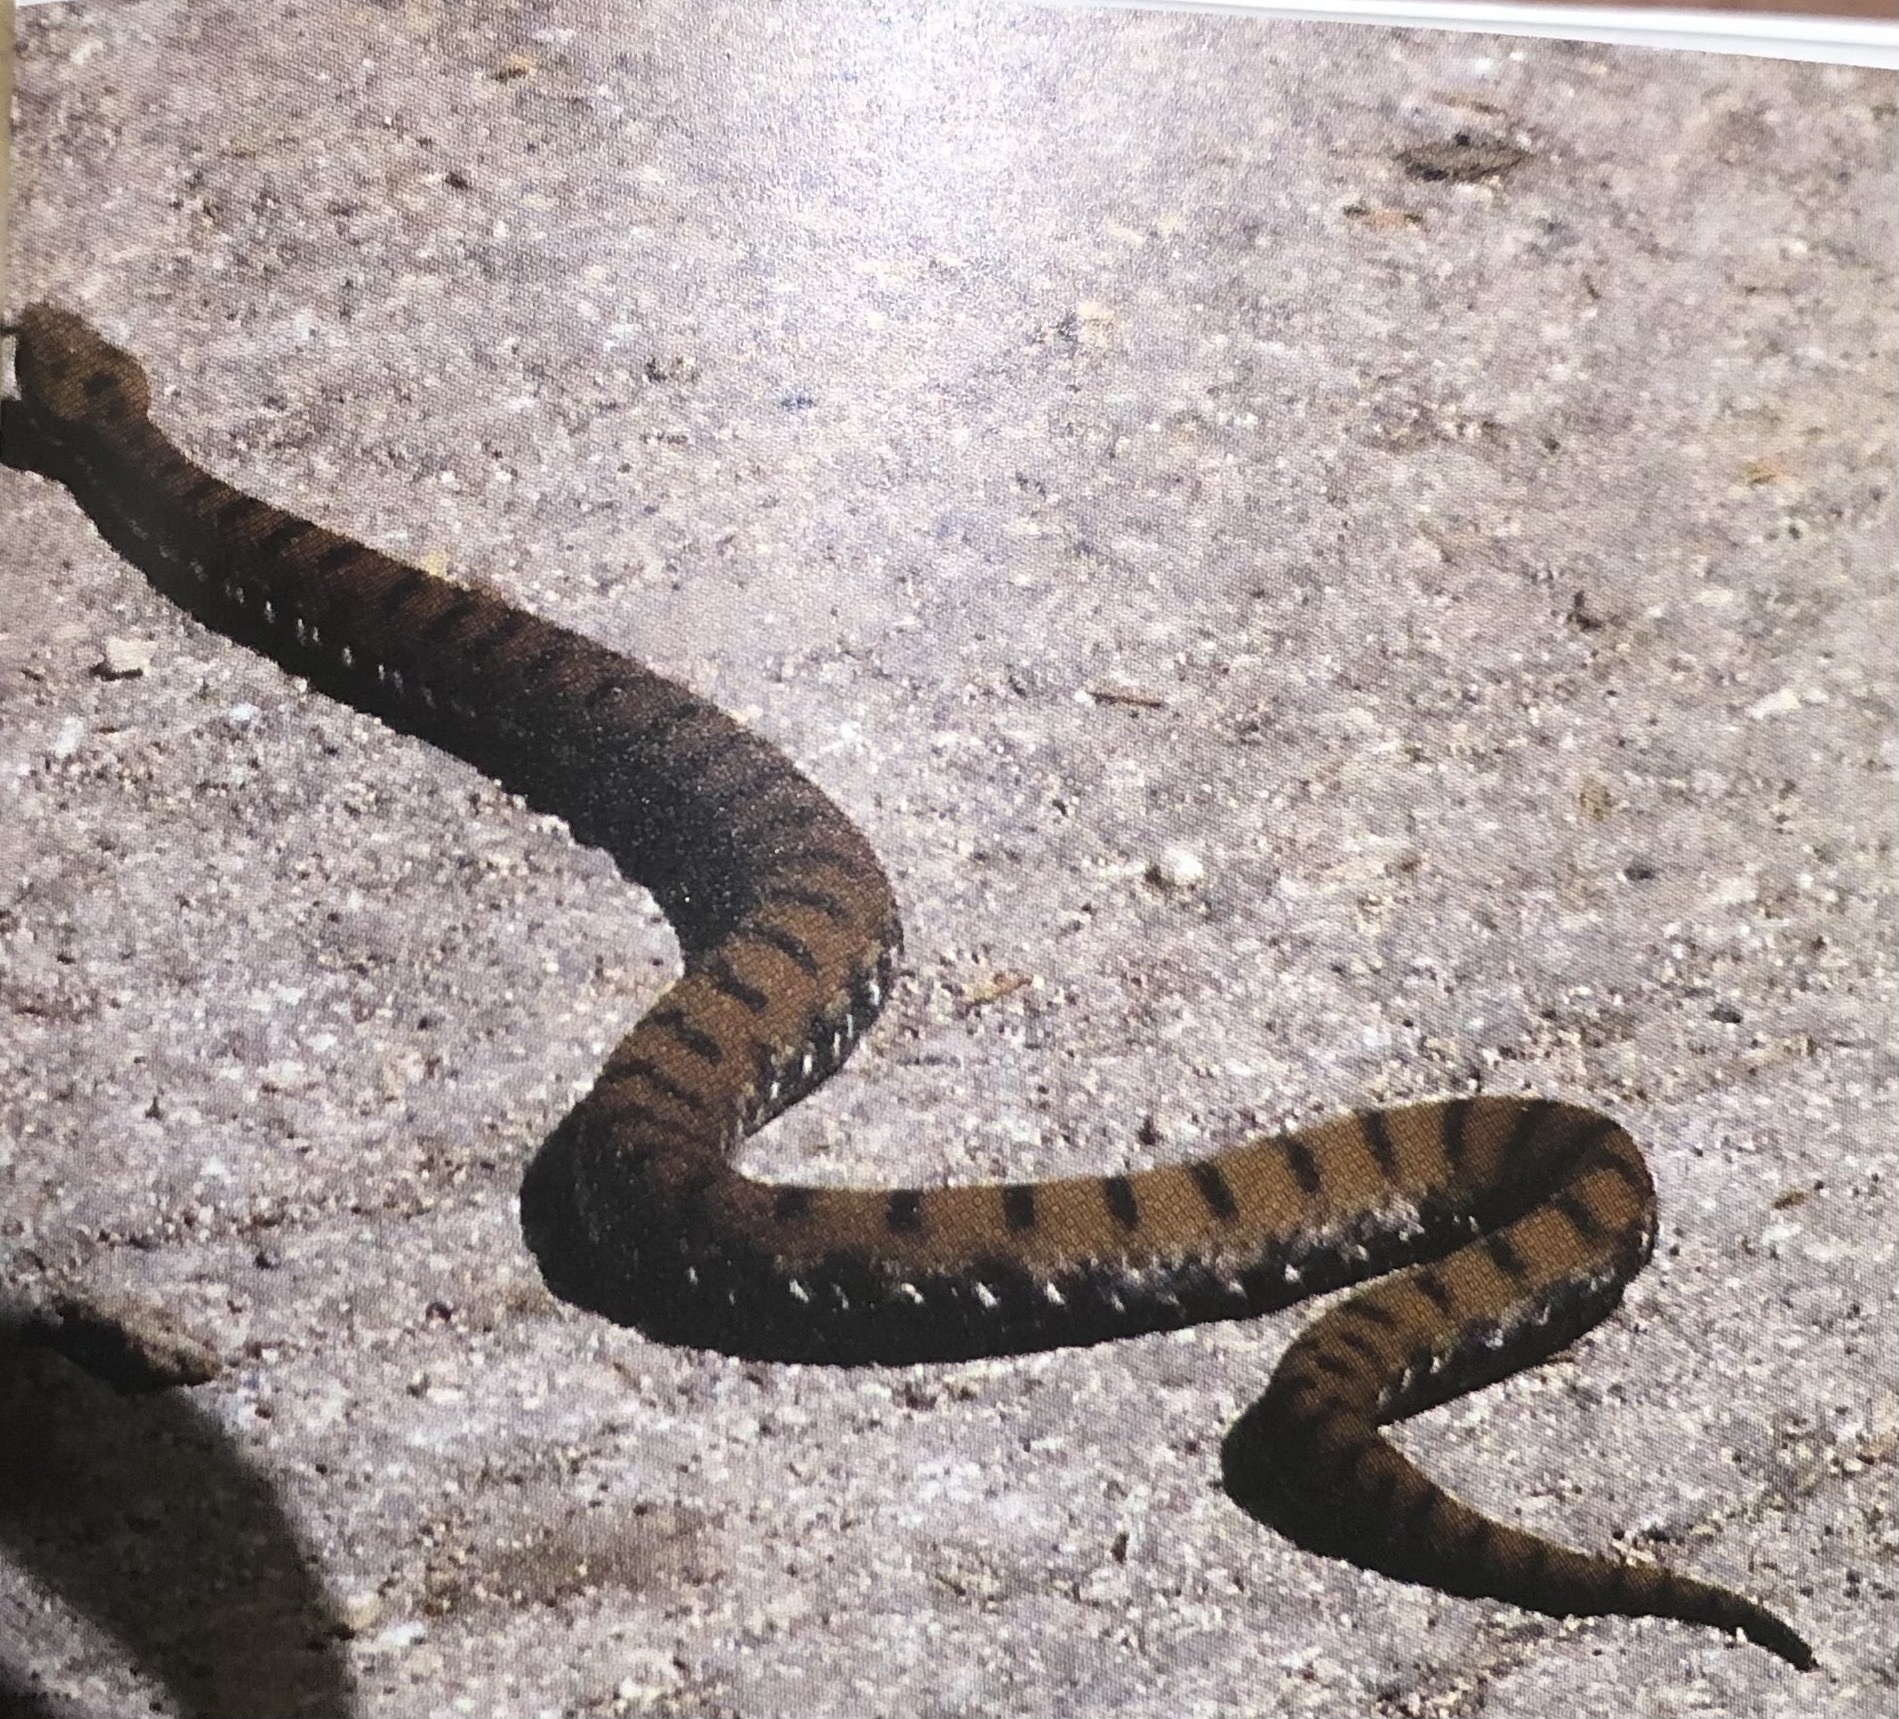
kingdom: Animalia
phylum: Chordata
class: Squamata
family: Viperidae
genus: Vipera
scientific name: Vipera aspis
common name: Asp viper
